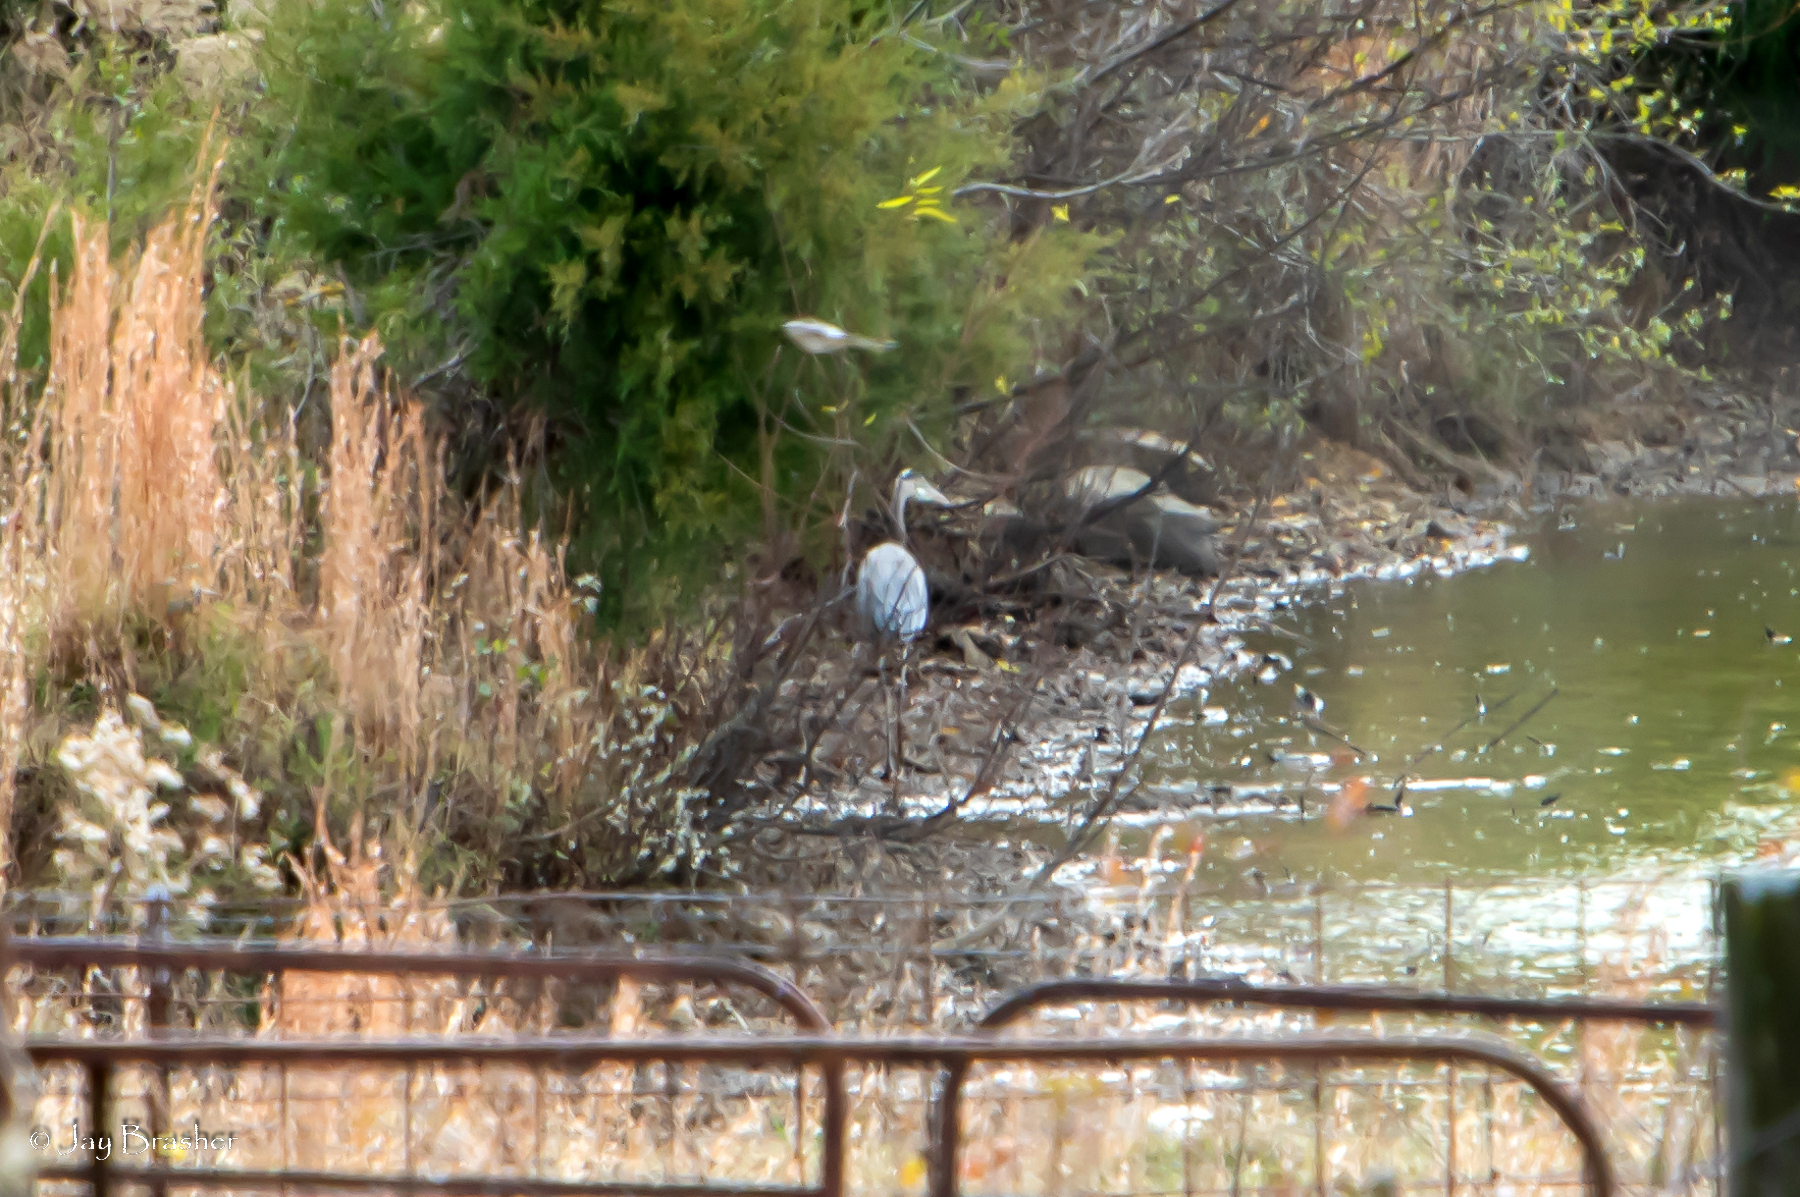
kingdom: Animalia
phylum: Chordata
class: Aves
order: Pelecaniformes
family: Ardeidae
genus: Ardea
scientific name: Ardea herodias
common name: Great blue heron
